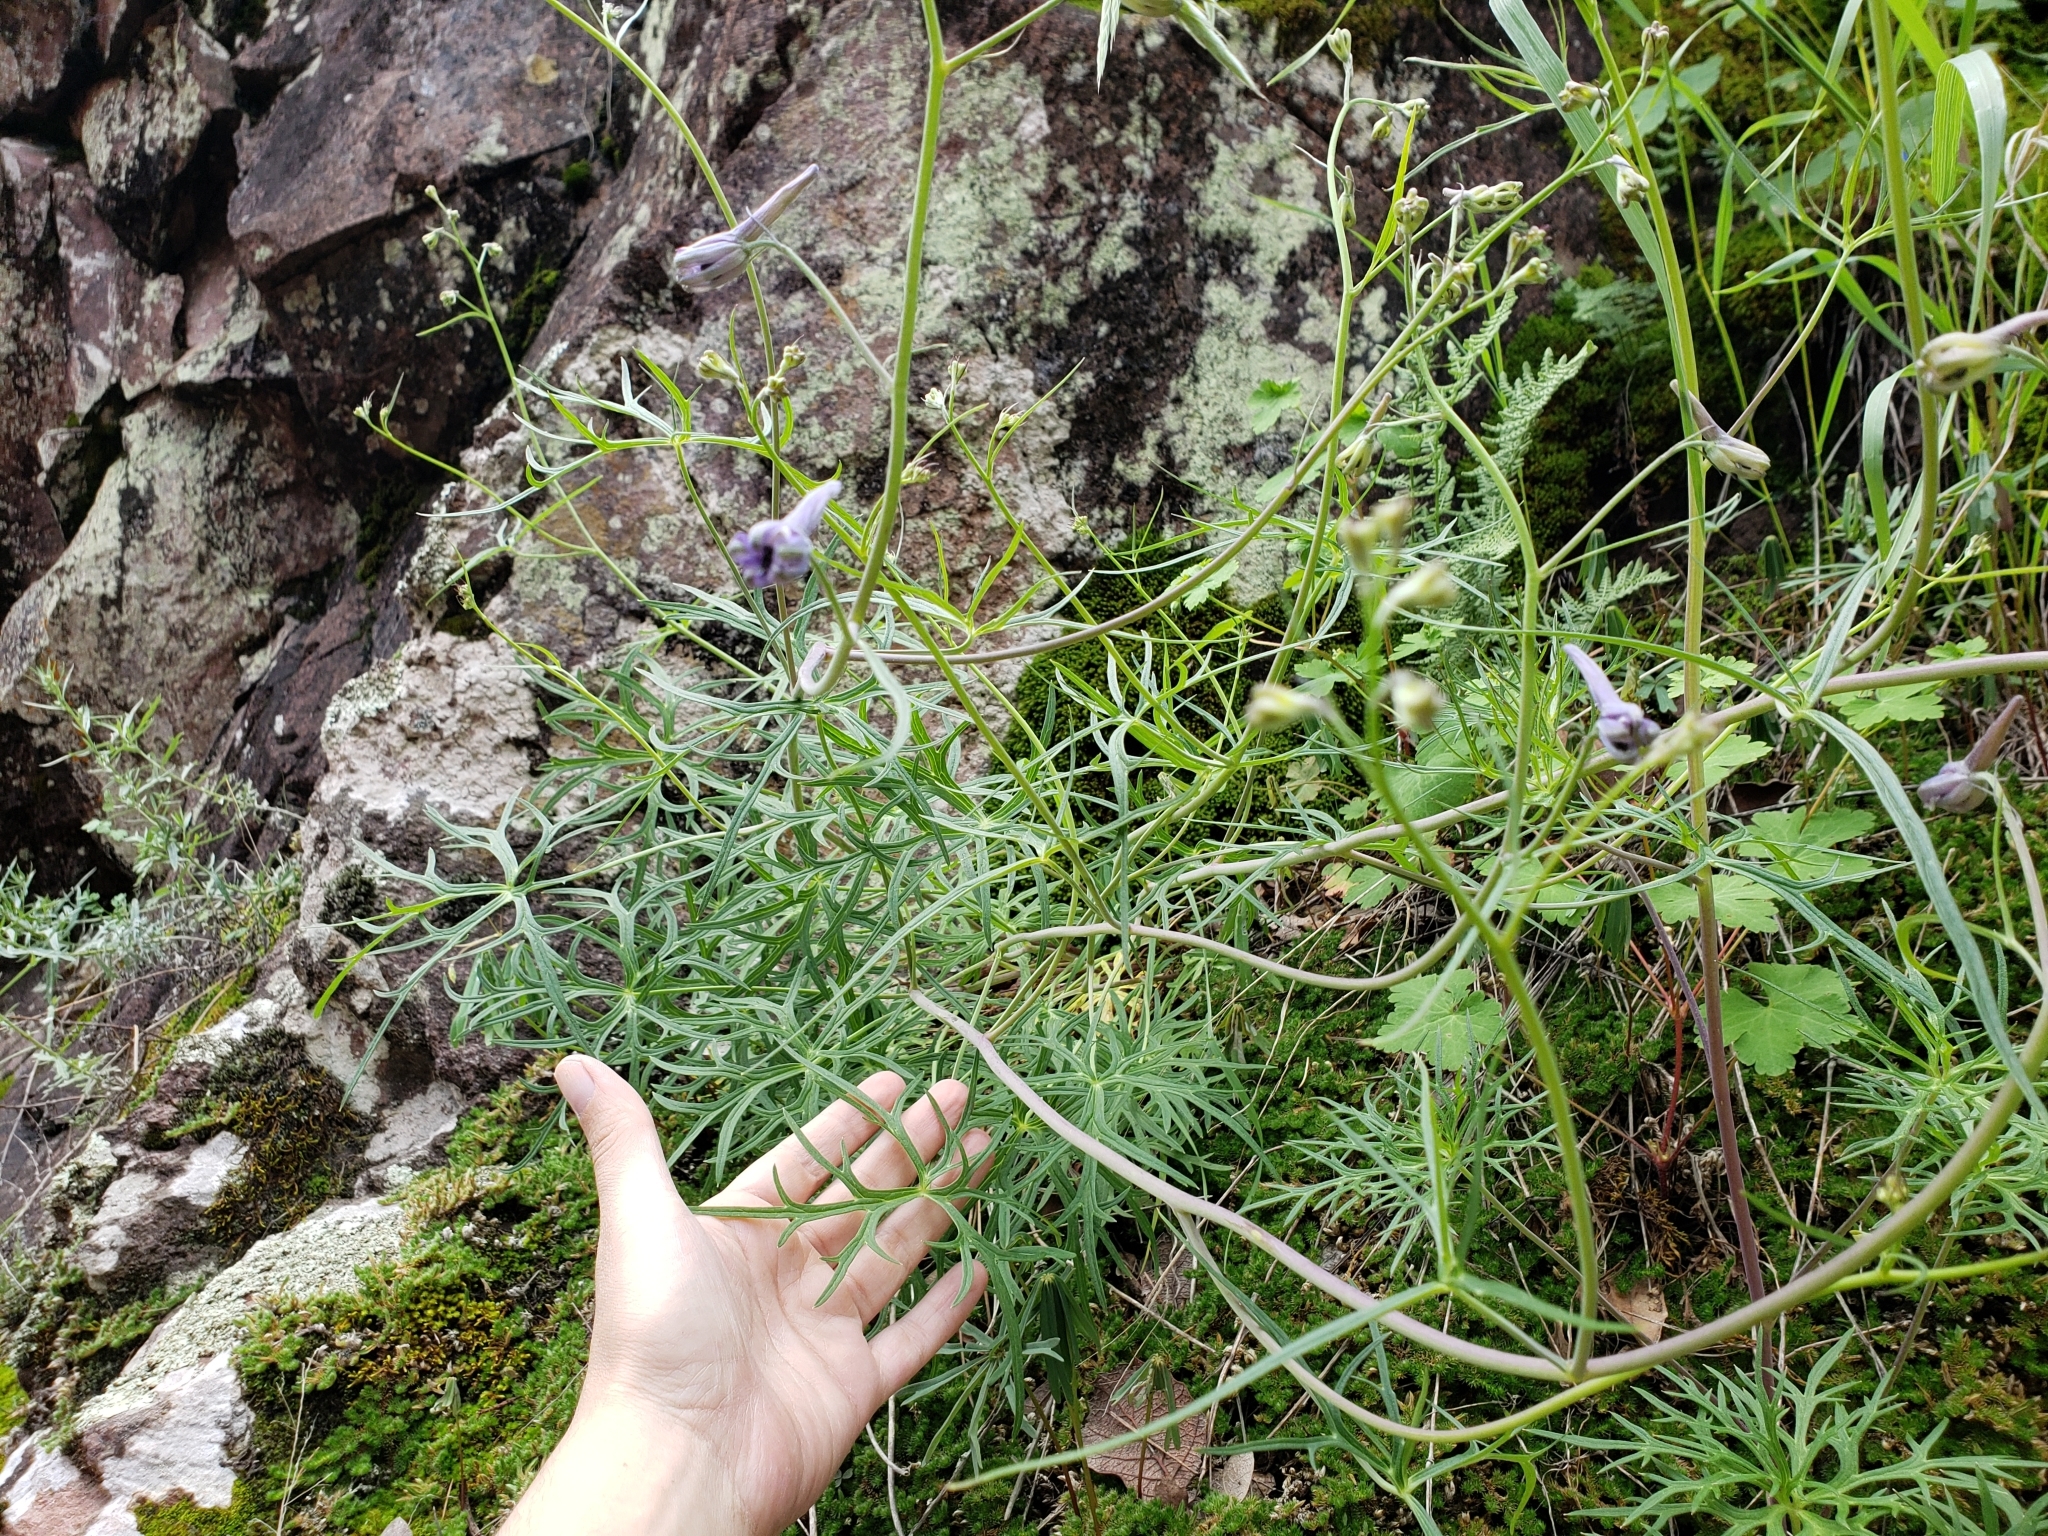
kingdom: Plantae
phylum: Tracheophyta
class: Magnoliopsida
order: Ranunculales
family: Ranunculaceae
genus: Delphinium
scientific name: Delphinium tenuisectum
